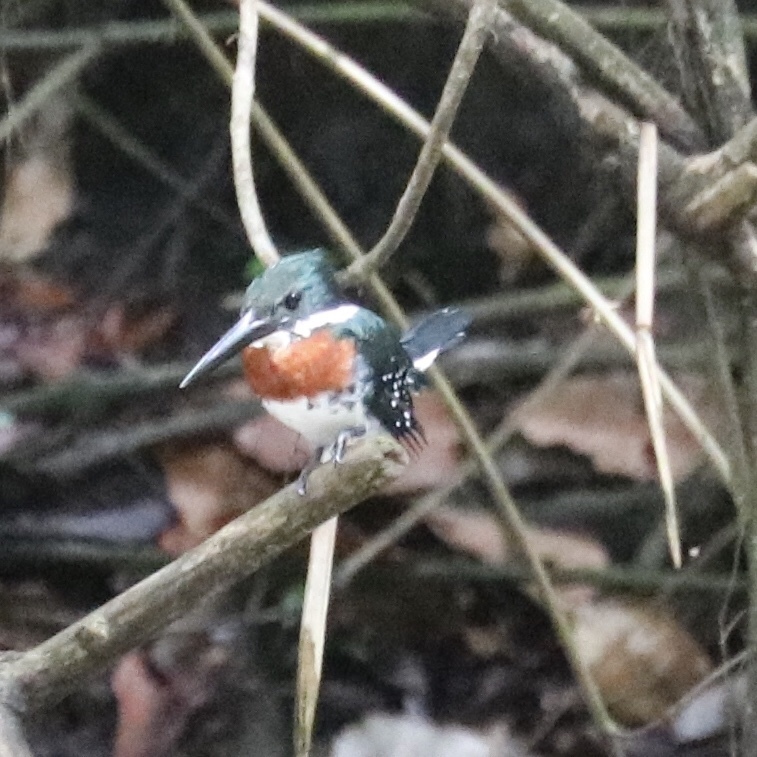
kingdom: Animalia
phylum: Chordata
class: Aves
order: Coraciiformes
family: Alcedinidae
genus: Chloroceryle
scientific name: Chloroceryle americana
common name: Green kingfisher
